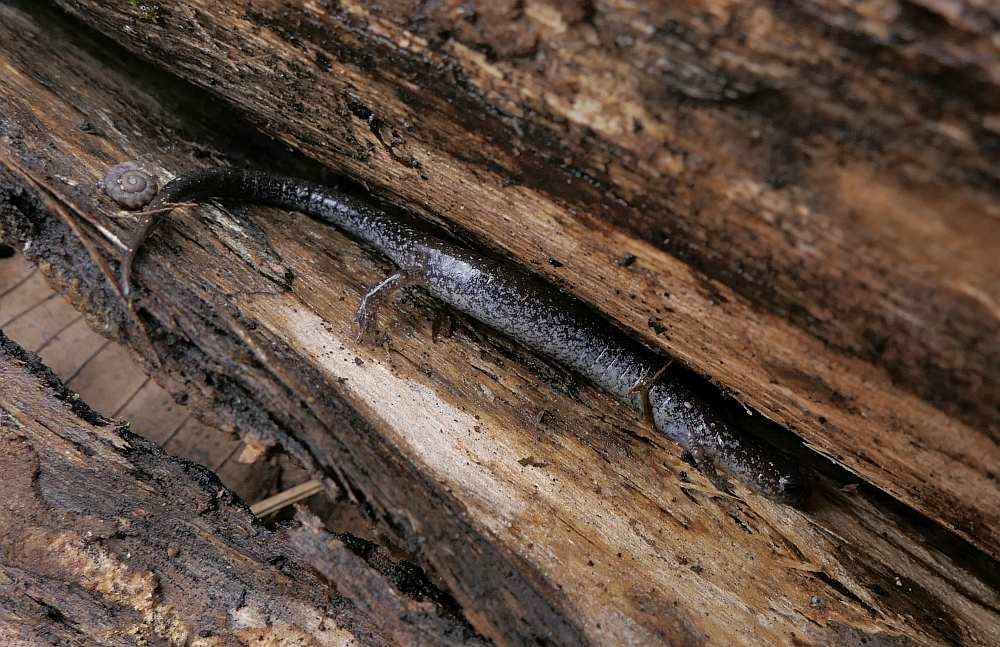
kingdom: Animalia
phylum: Chordata
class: Amphibia
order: Caudata
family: Plethodontidae
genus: Plethodon
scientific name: Plethodon cinereus
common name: Redback salamander
